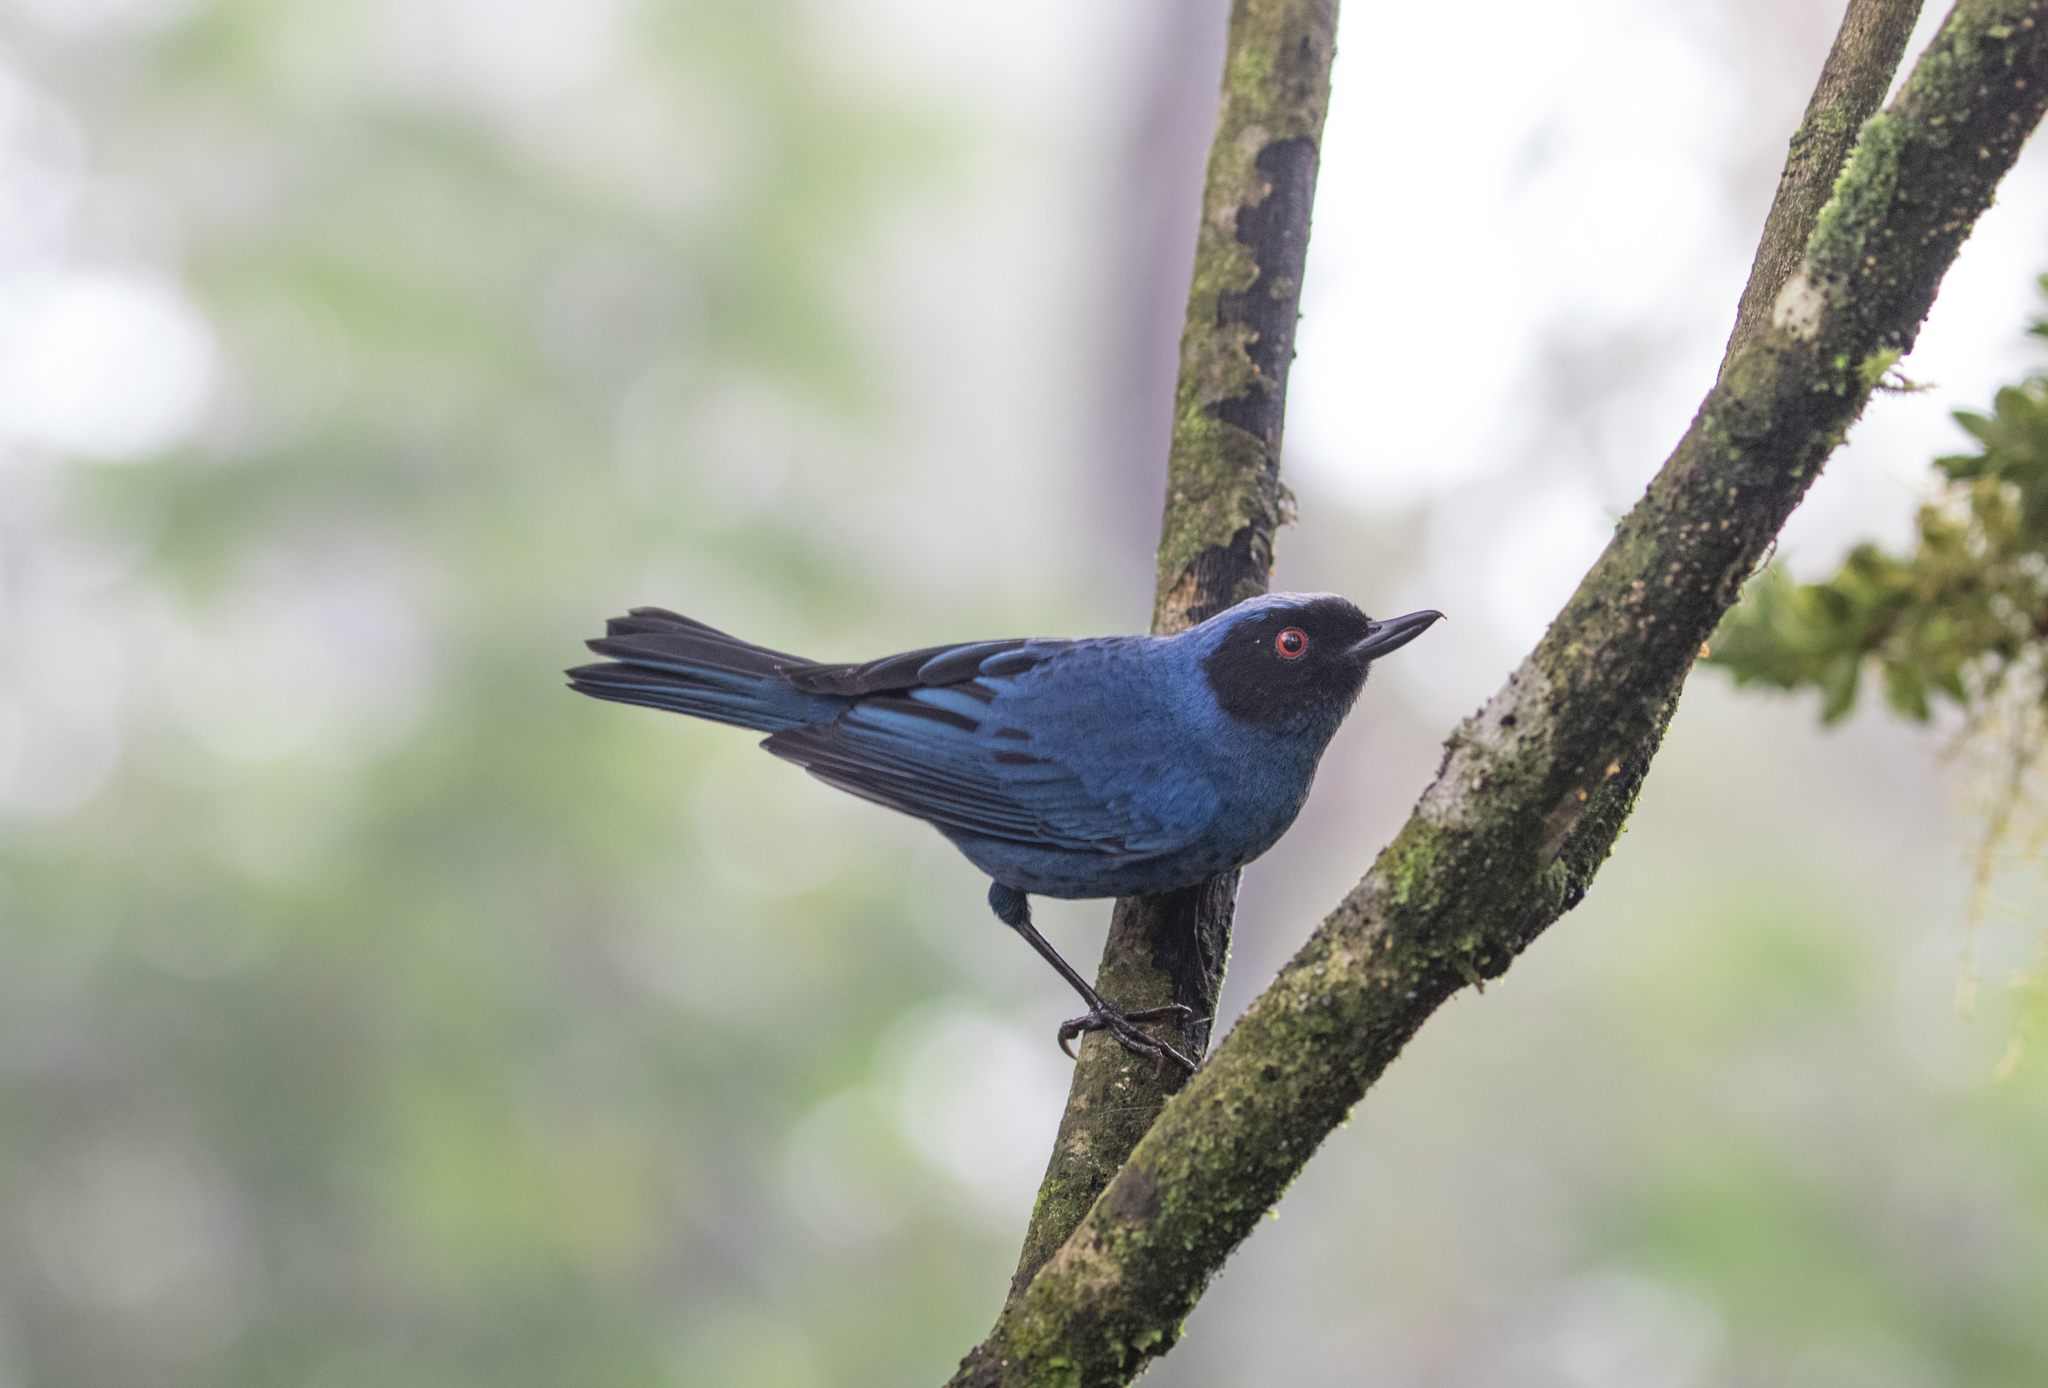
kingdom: Animalia
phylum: Chordata
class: Aves
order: Passeriformes
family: Thraupidae
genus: Diglossa
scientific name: Diglossa cyanea
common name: Masked flowerpiercer
